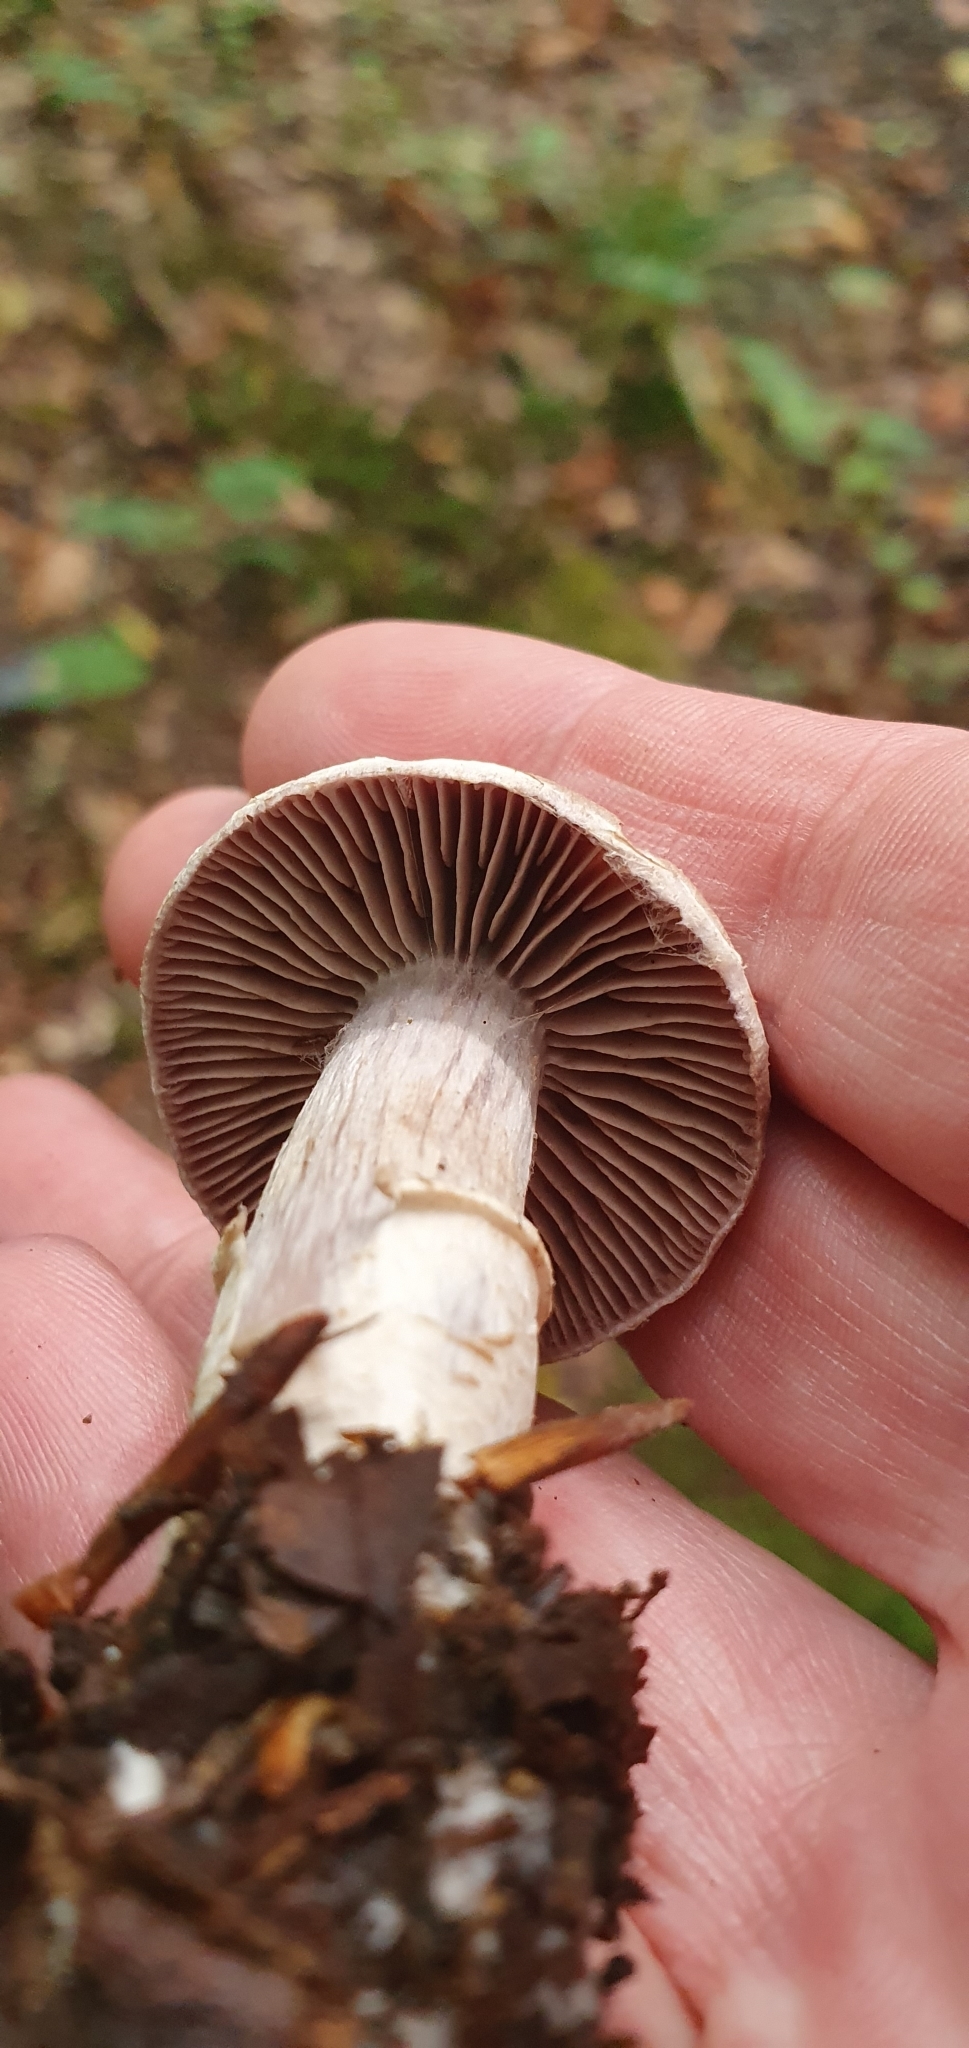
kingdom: Fungi
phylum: Basidiomycota
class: Agaricomycetes
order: Agaricales
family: Cortinariaceae
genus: Cortinarius
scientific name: Cortinarius torvus
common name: Stocking webcap
